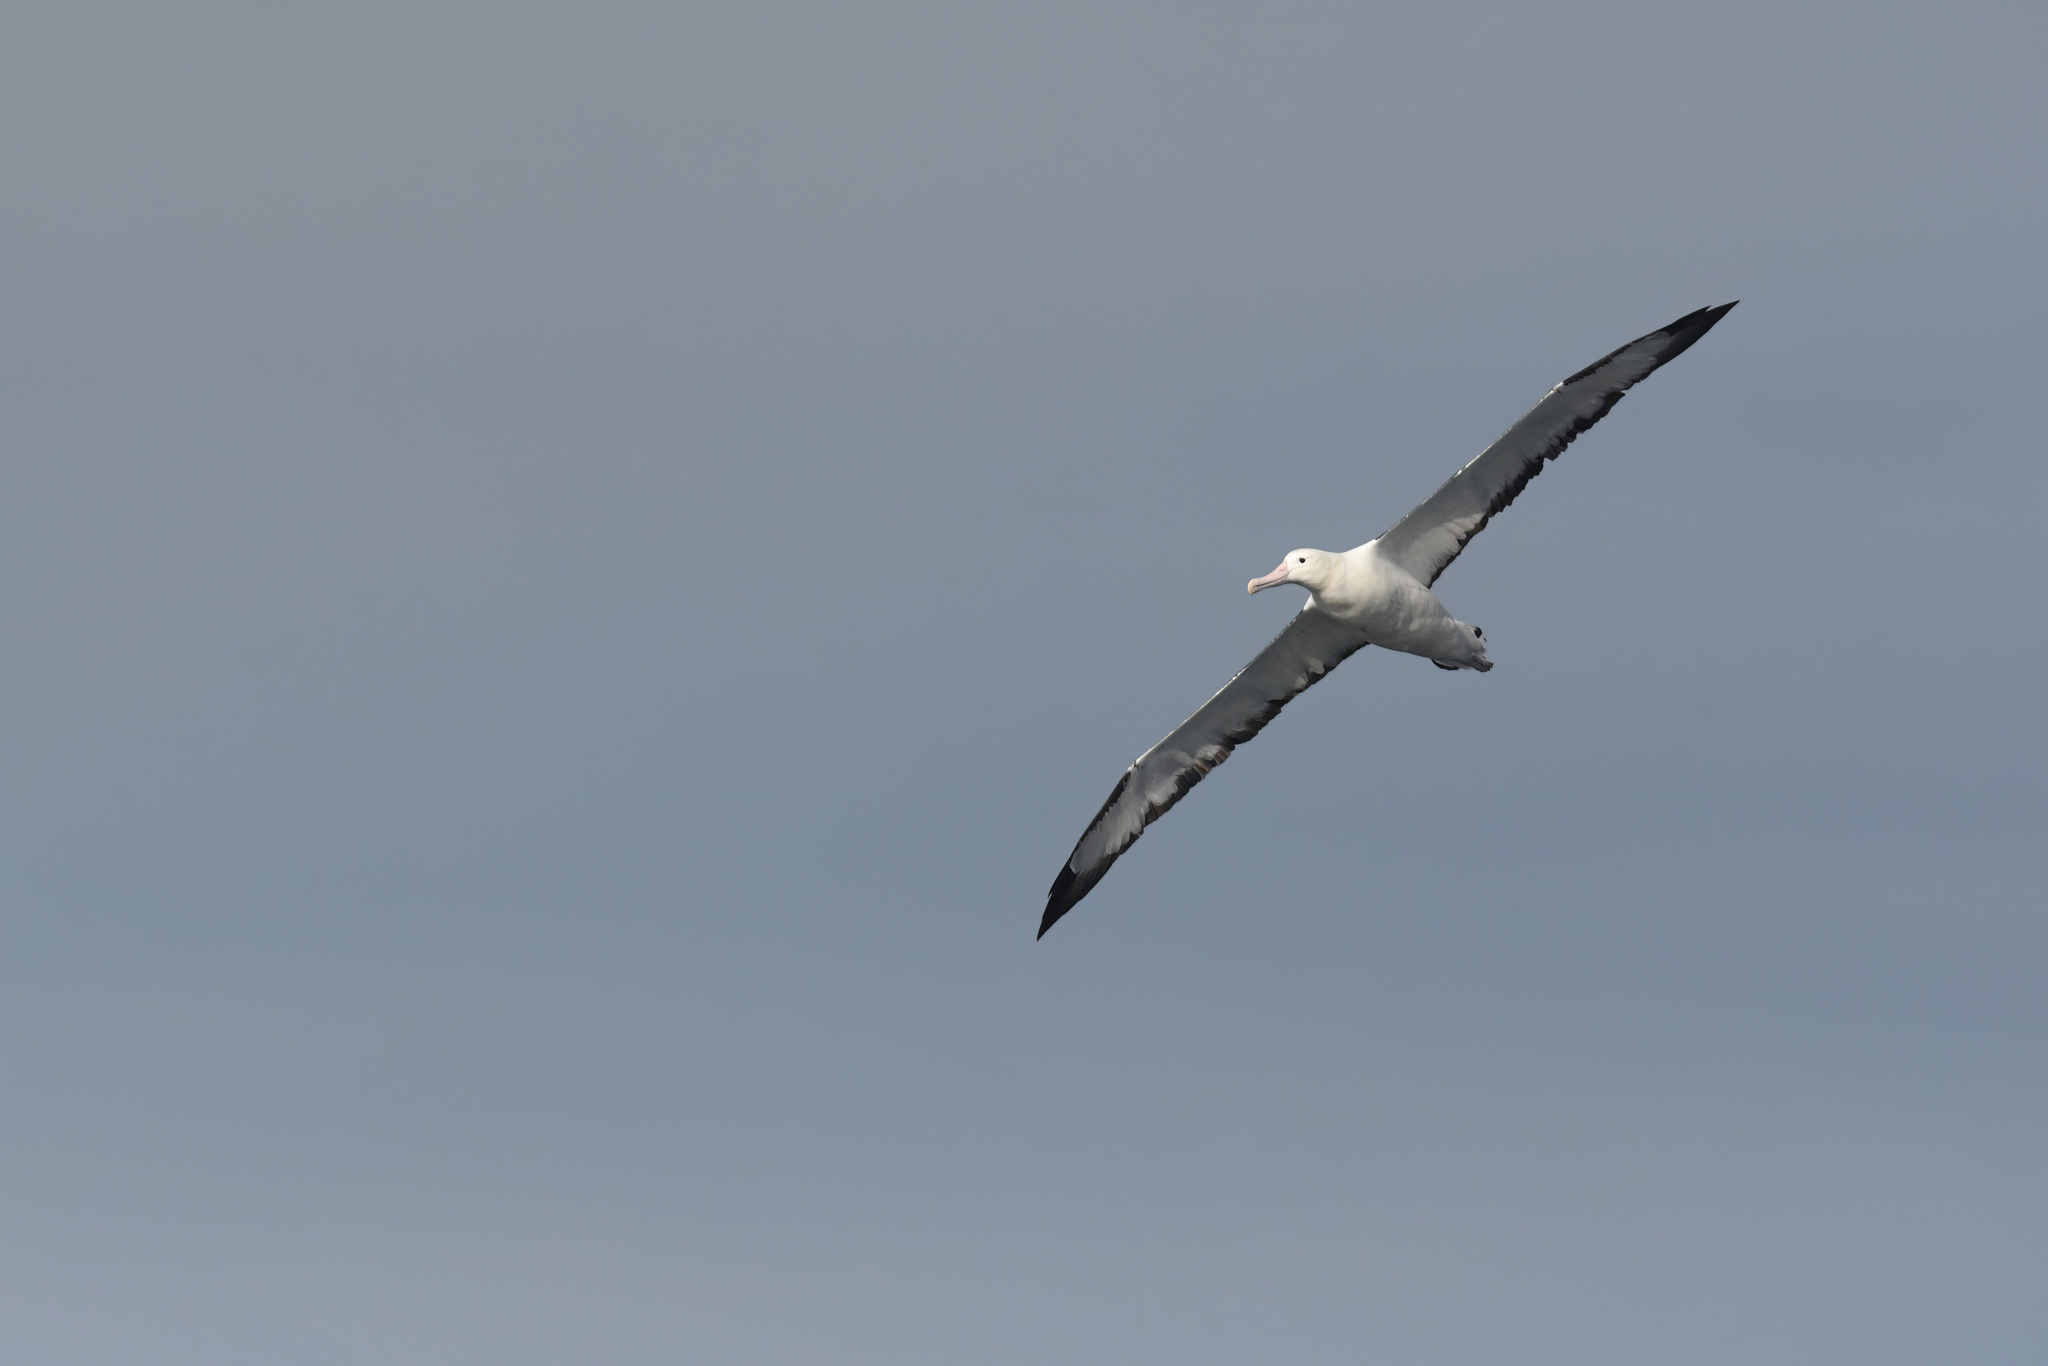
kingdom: Animalia
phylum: Chordata
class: Aves
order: Procellariiformes
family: Diomedeidae
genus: Diomedea
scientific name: Diomedea sanfordi
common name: Northern royal albatross
